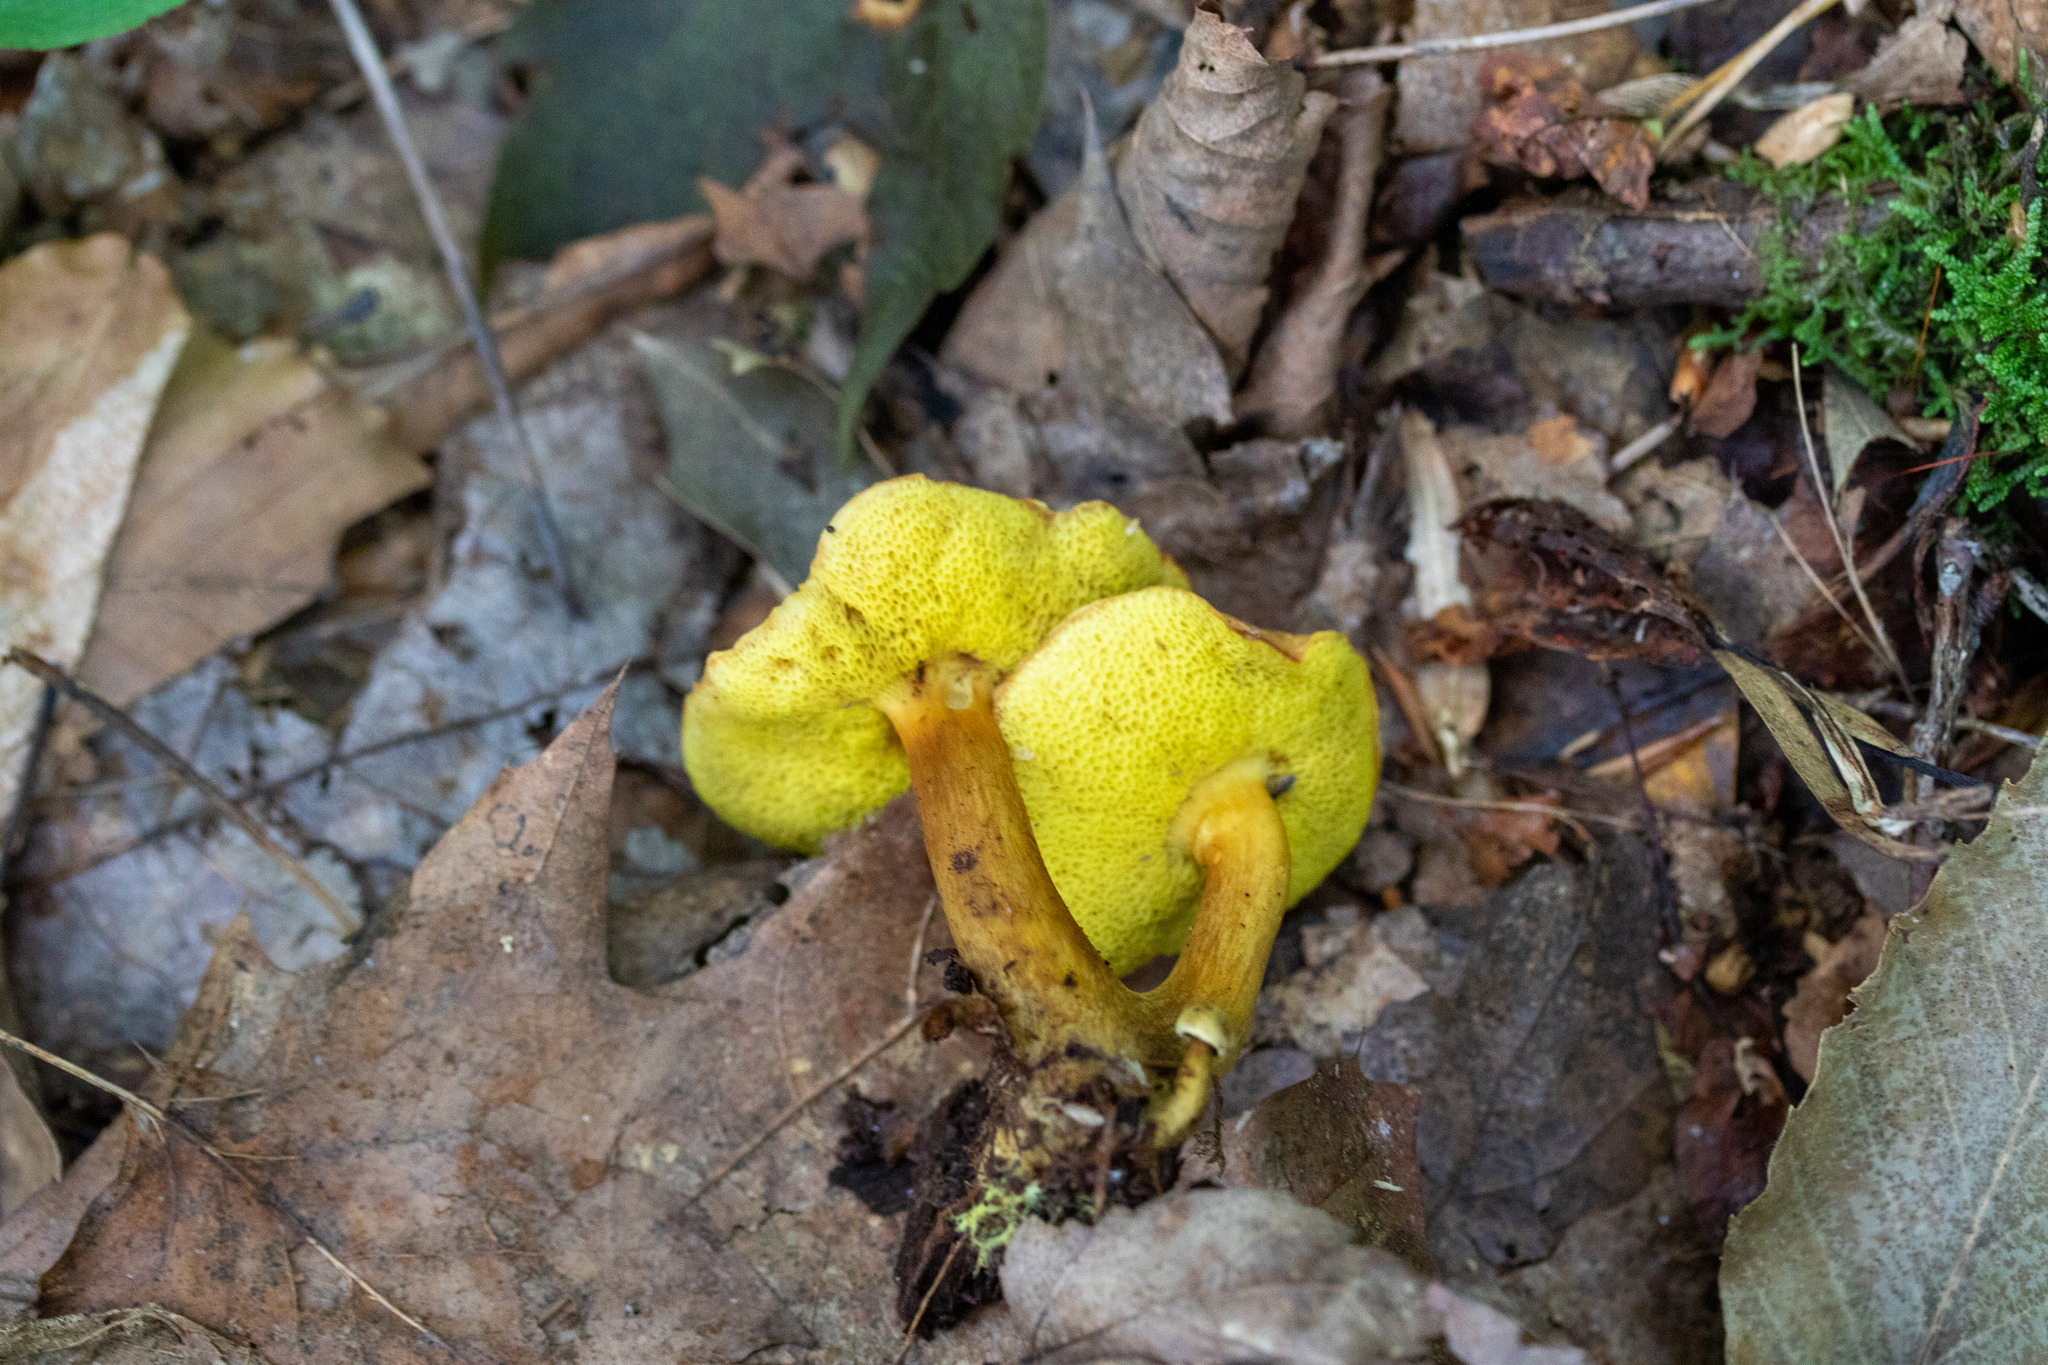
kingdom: Fungi
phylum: Basidiomycota
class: Agaricomycetes
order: Boletales
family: Boletaceae
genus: Aureoboletus
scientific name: Aureoboletus innixus
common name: Clustered brown bolete
